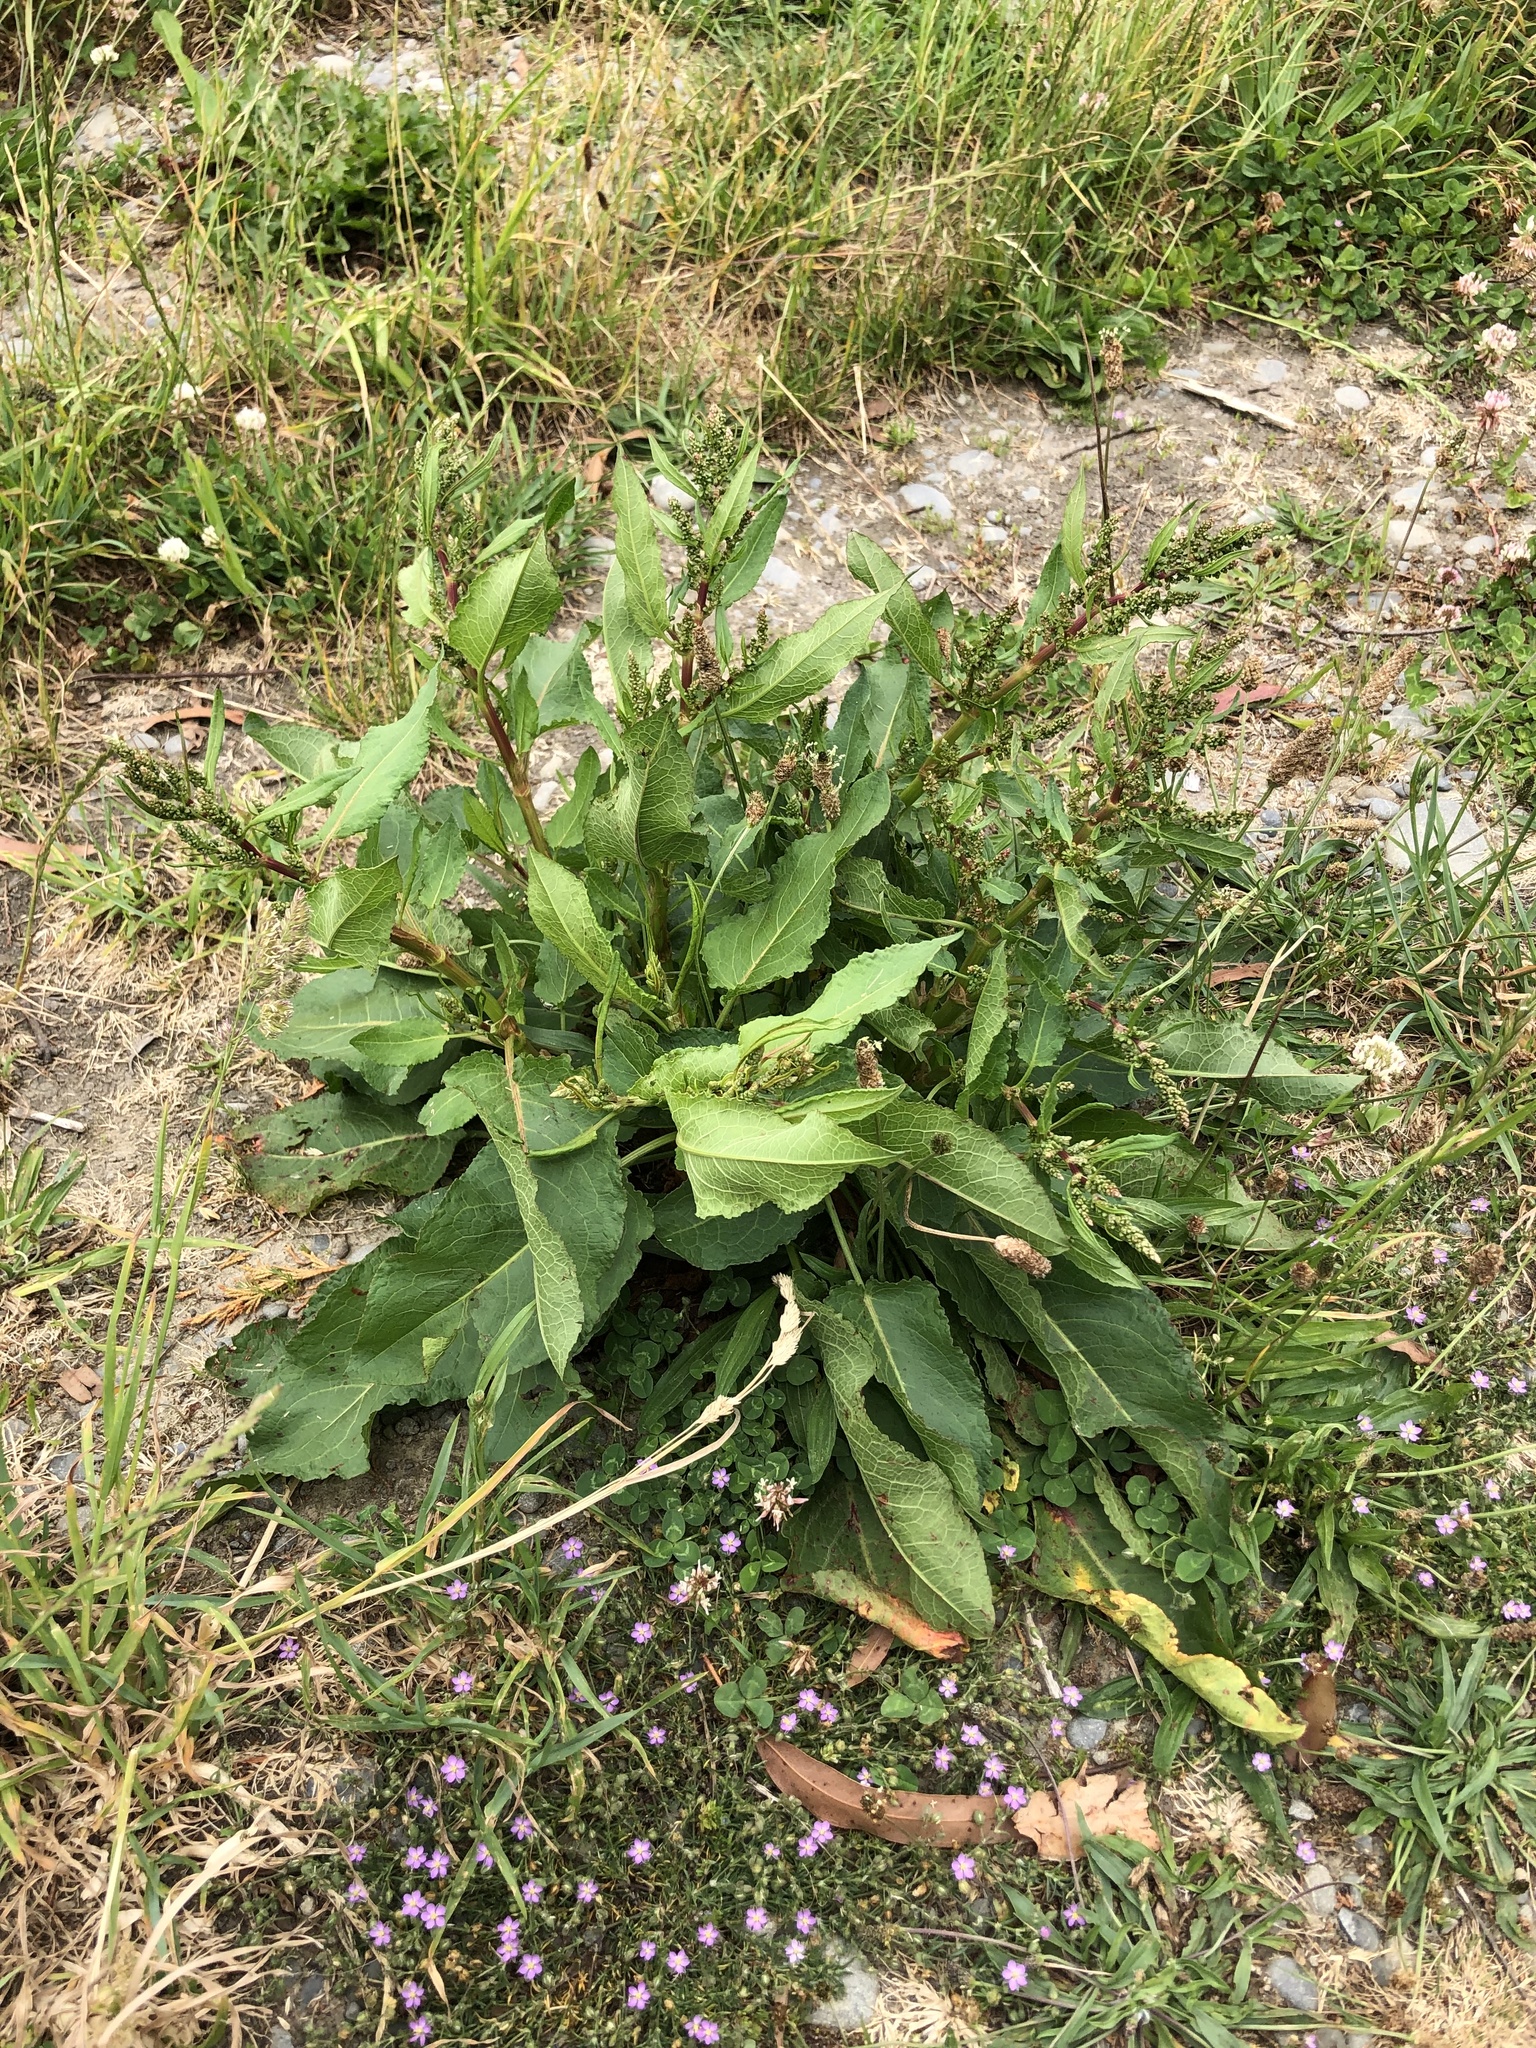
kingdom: Plantae
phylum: Tracheophyta
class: Magnoliopsida
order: Caryophyllales
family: Polygonaceae
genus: Rumex
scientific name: Rumex obtusifolius
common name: Bitter dock
